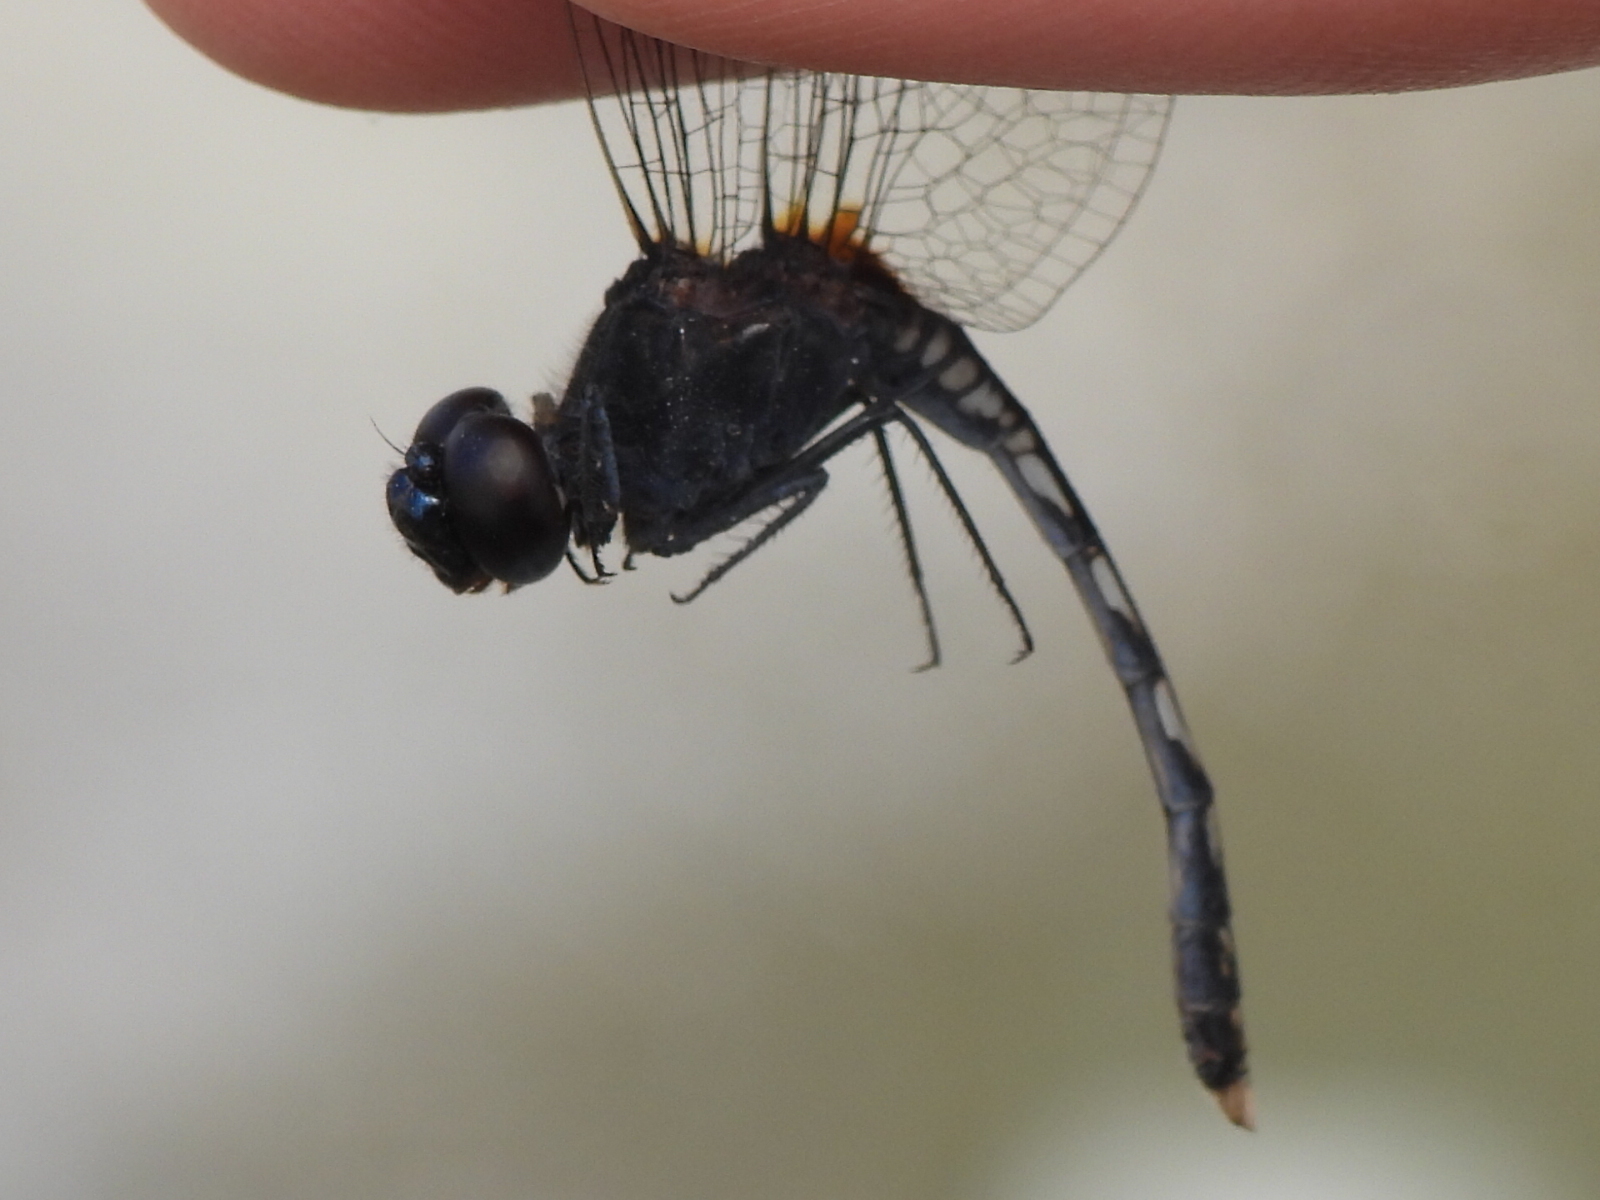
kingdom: Animalia
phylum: Arthropoda
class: Insecta
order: Odonata
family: Libellulidae
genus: Diplacodes
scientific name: Diplacodes lefebvrii
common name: Black percher
